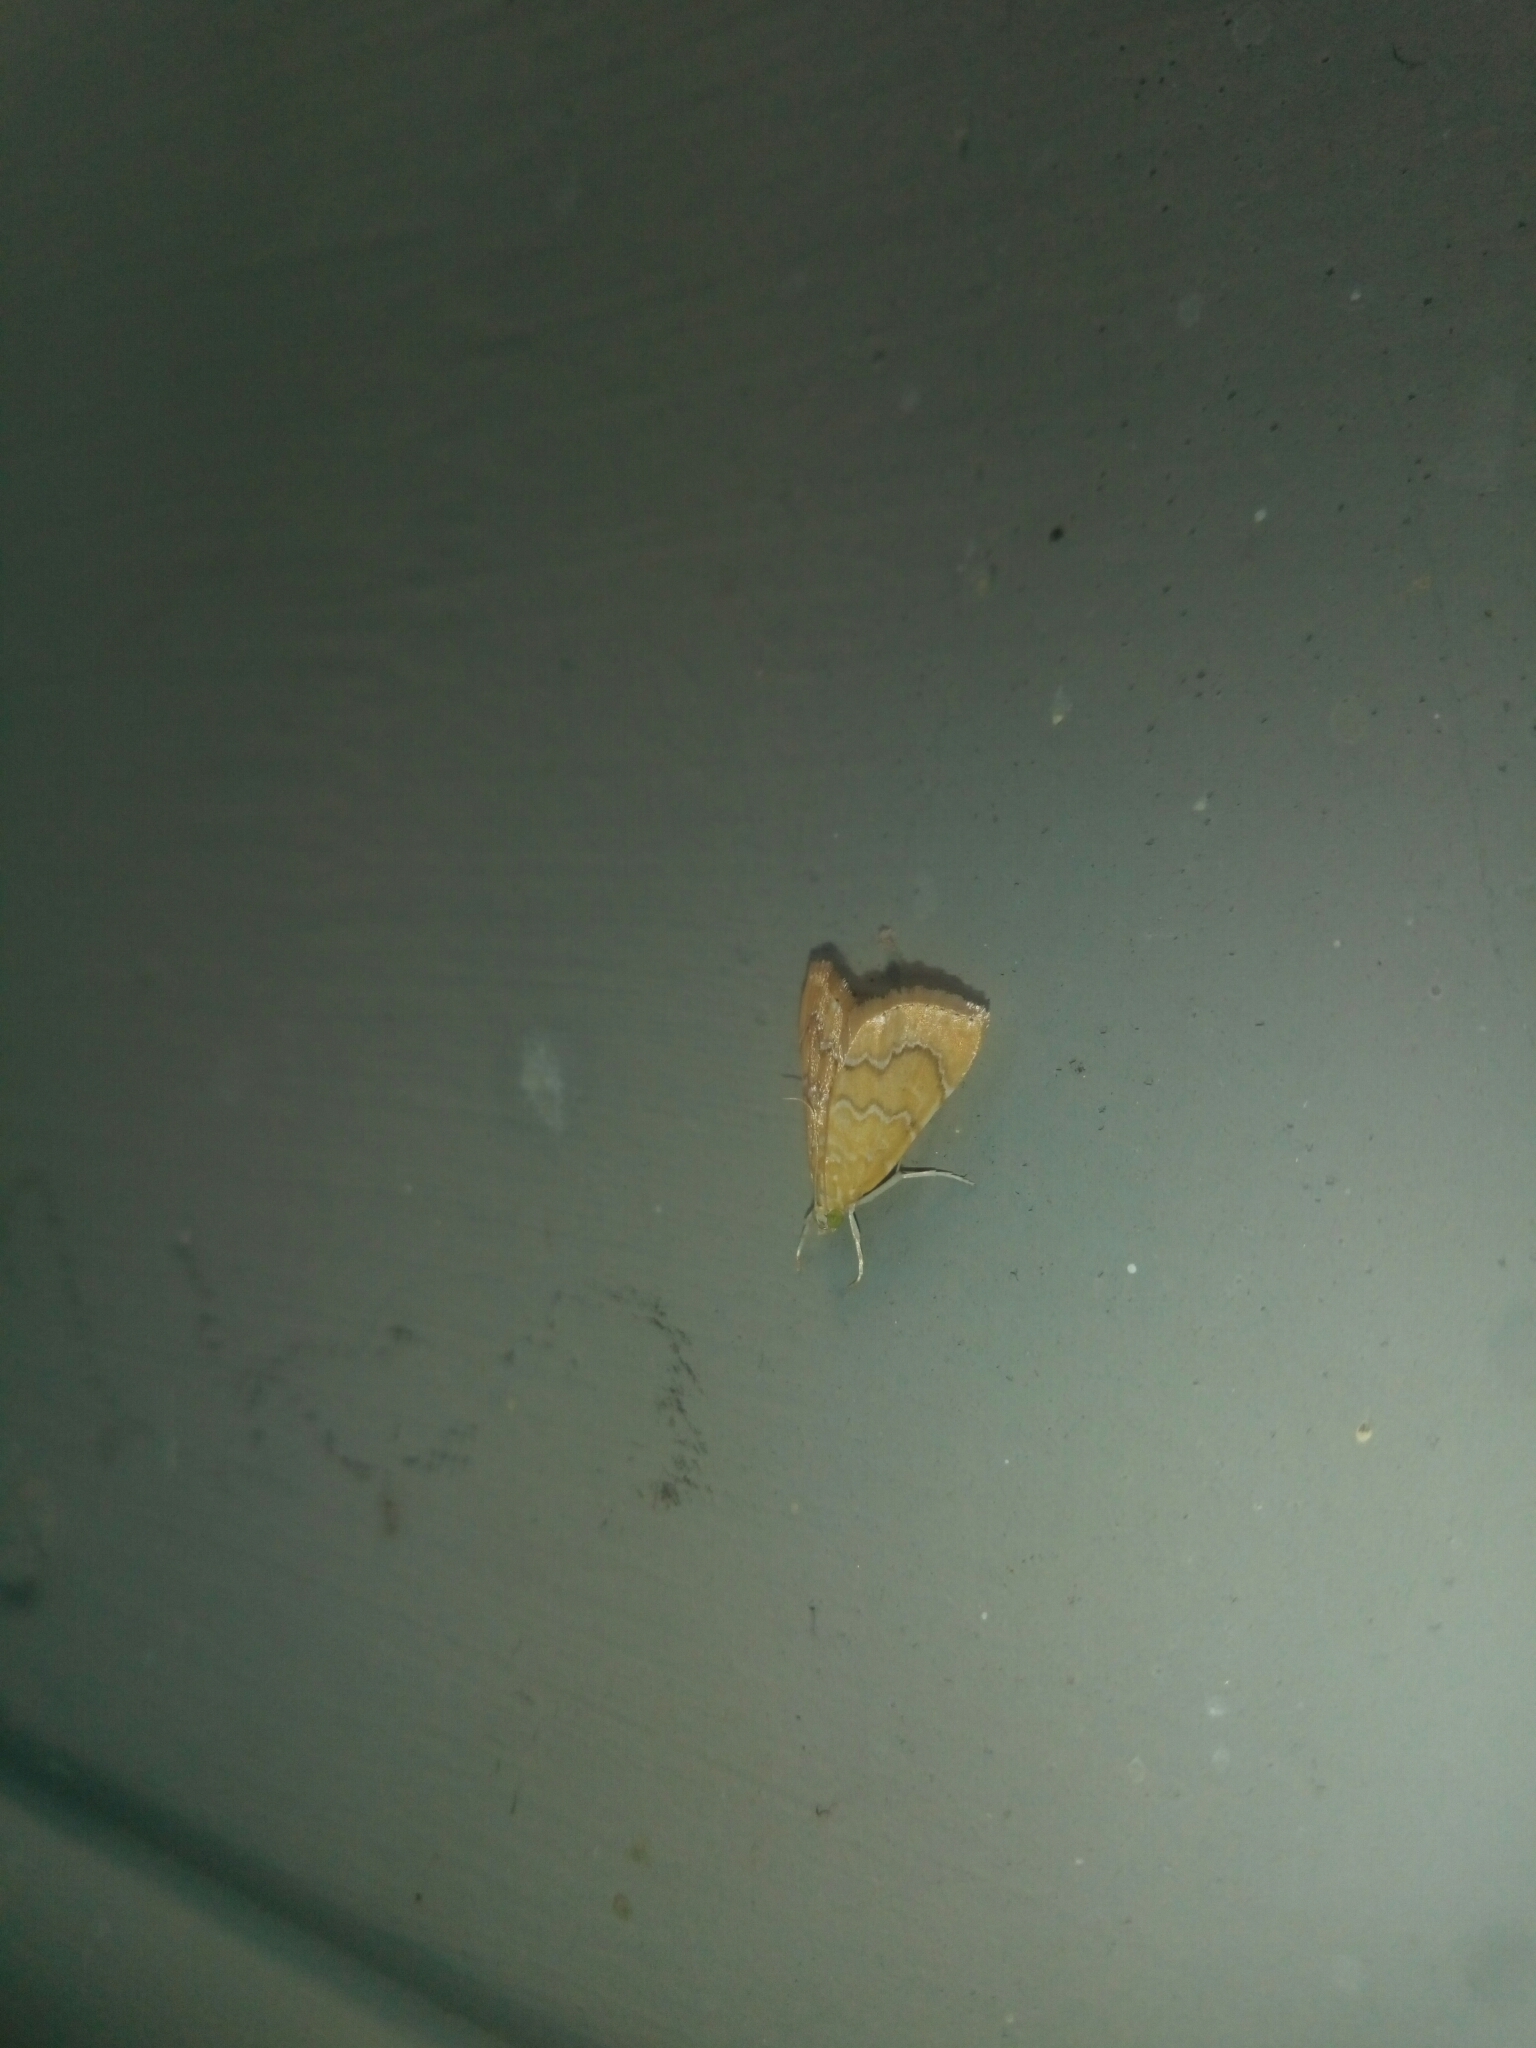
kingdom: Animalia
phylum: Arthropoda
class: Insecta
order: Lepidoptera
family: Crambidae
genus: Glaphyria
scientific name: Glaphyria sesquistrialis
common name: White-roped glaphyria
